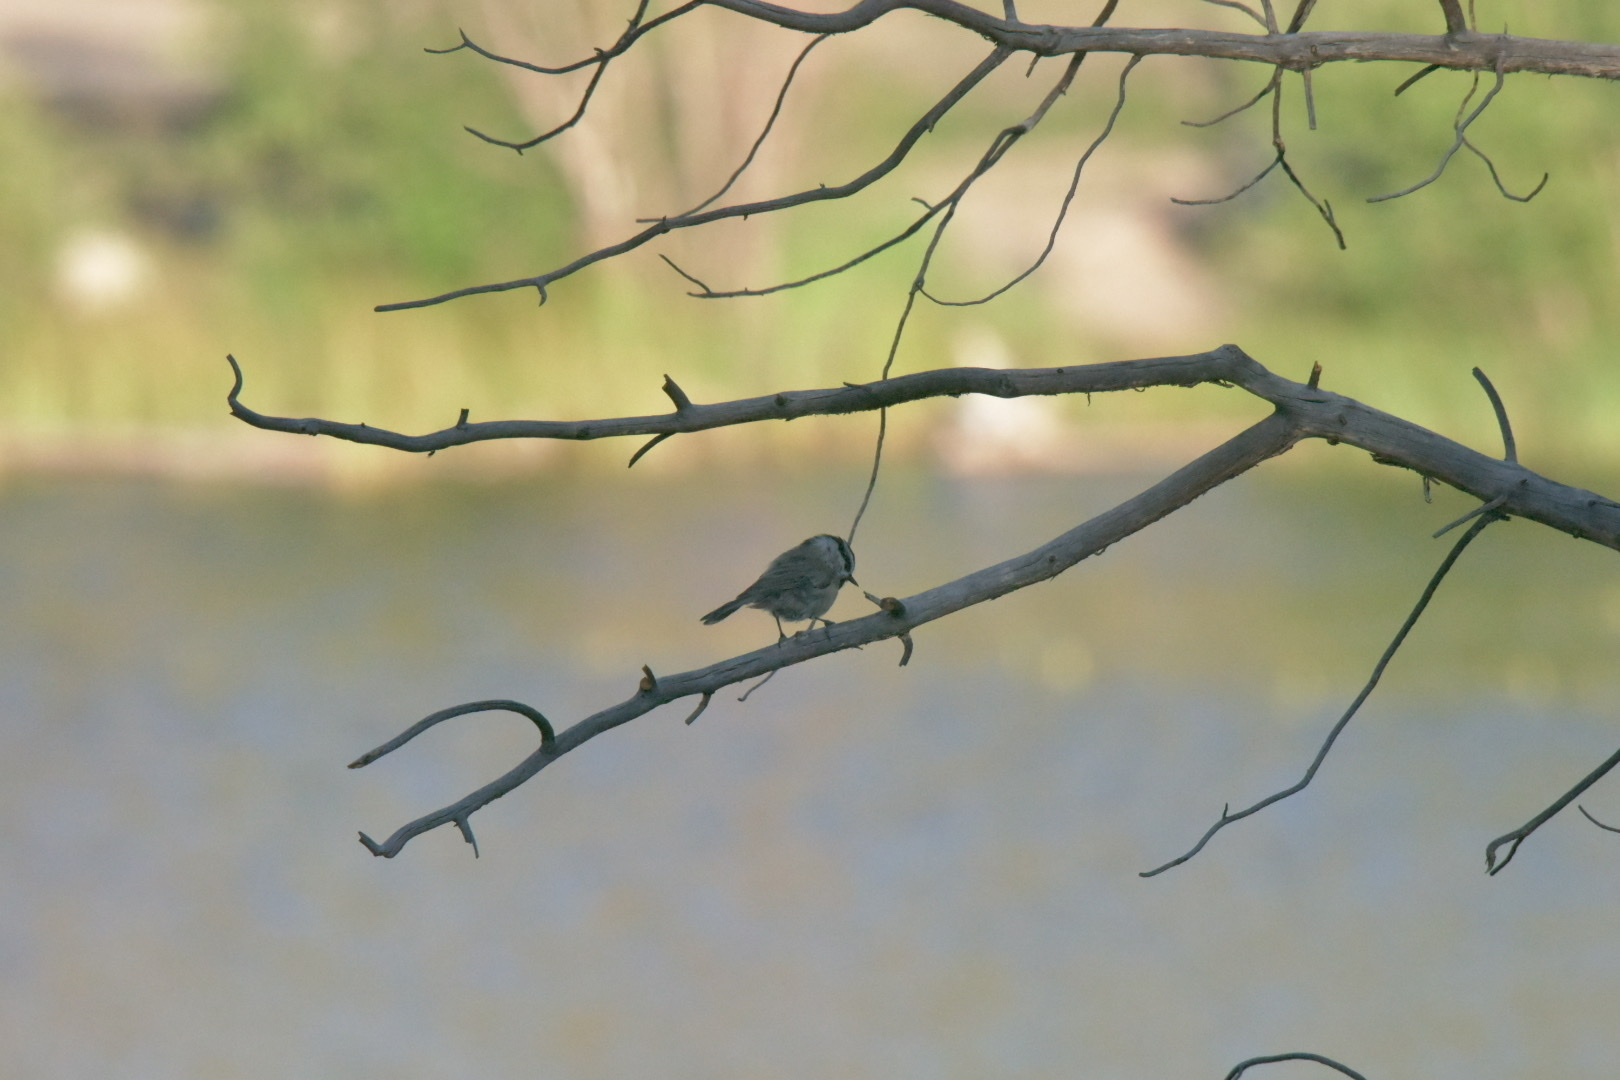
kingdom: Animalia
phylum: Chordata
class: Aves
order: Passeriformes
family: Paridae
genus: Poecile
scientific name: Poecile gambeli
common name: Mountain chickadee
